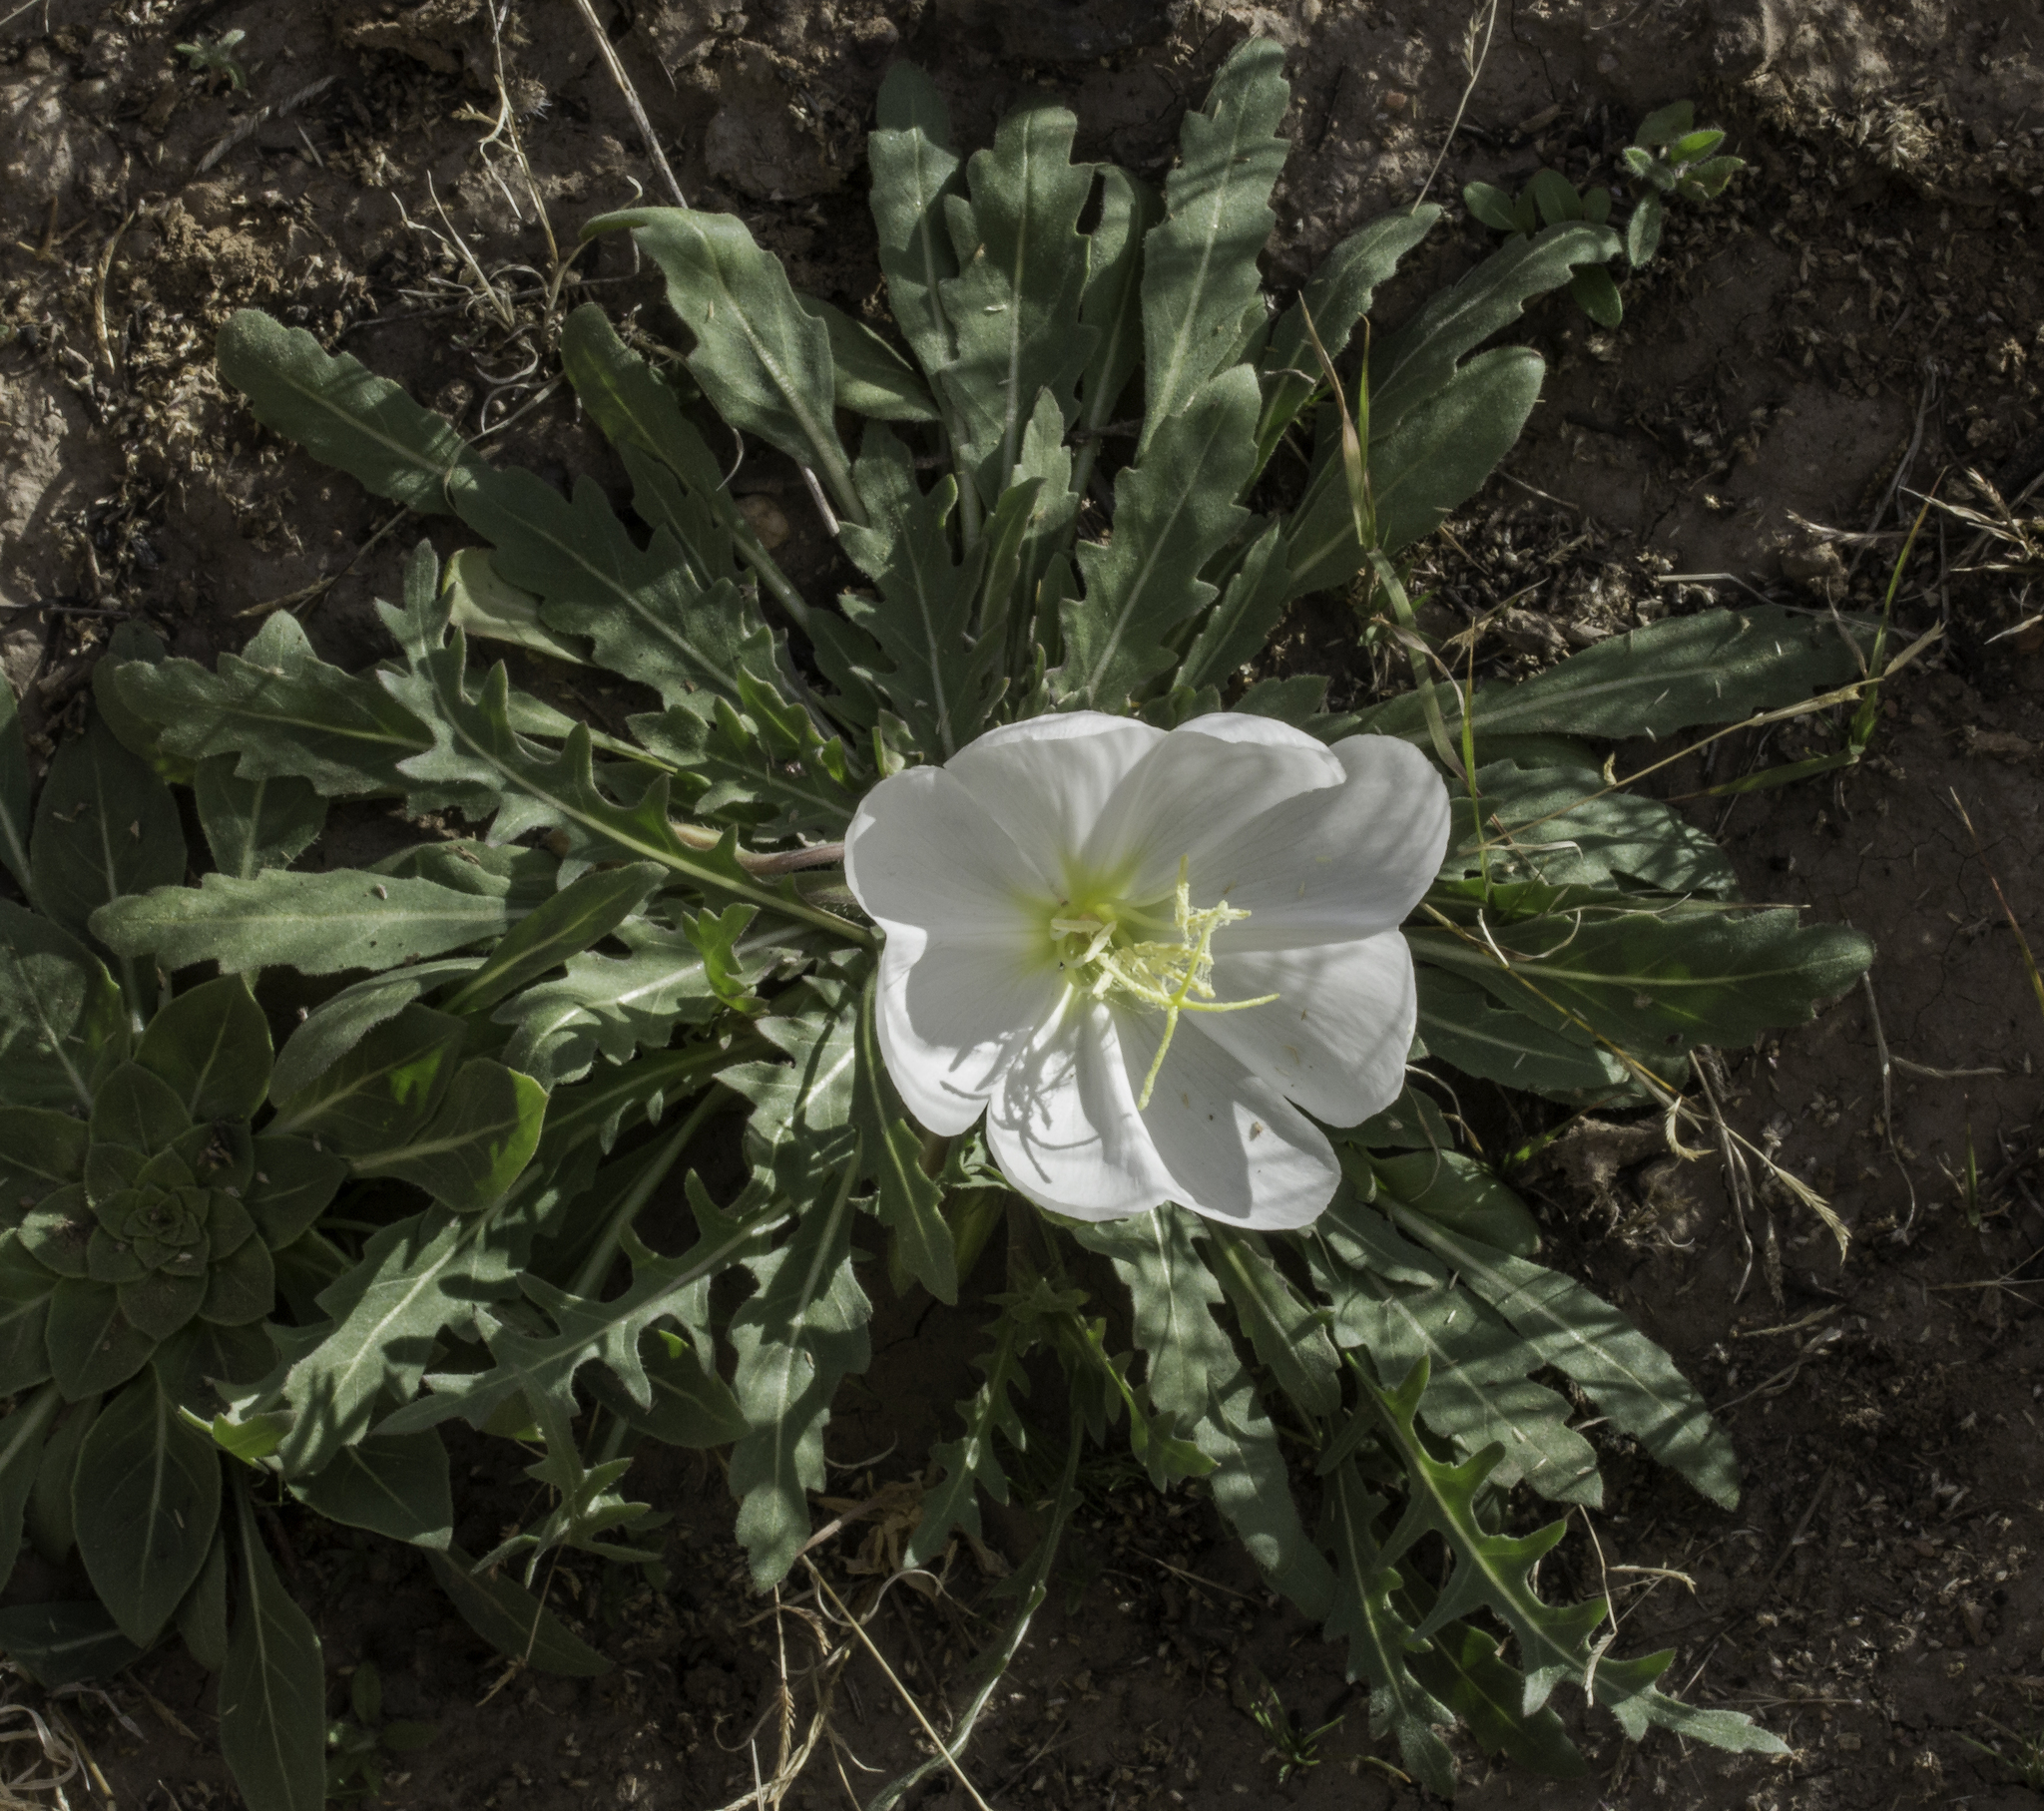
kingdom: Plantae
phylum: Tracheophyta
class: Magnoliopsida
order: Myrtales
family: Onagraceae
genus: Oenothera
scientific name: Oenothera cespitosa
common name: Tufted evening-primrose
